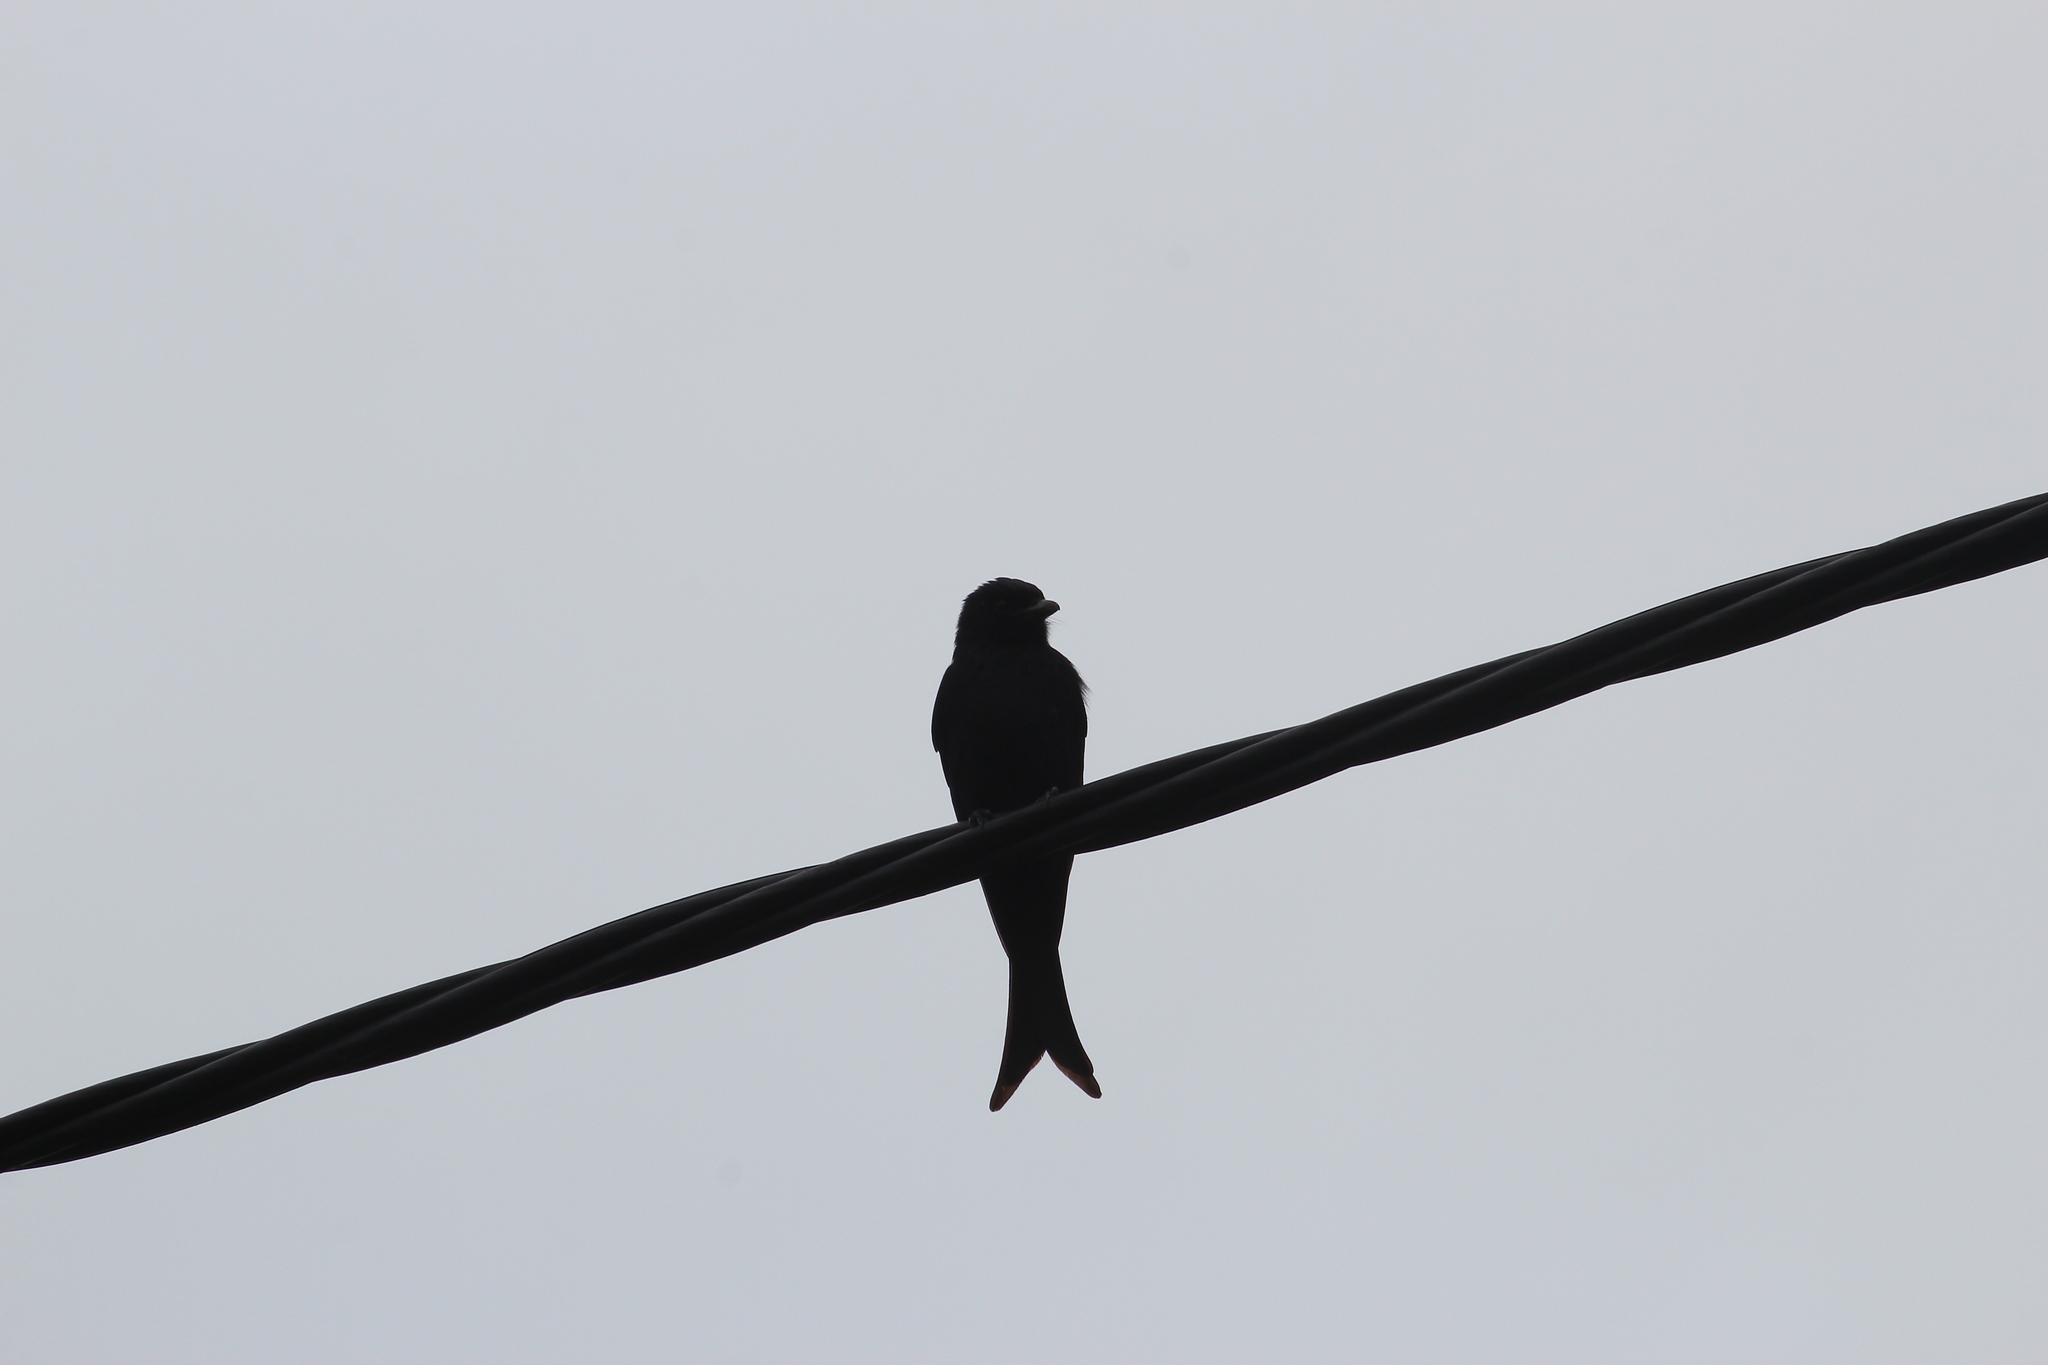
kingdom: Animalia
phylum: Chordata
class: Aves
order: Passeriformes
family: Dicruridae
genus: Dicrurus
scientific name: Dicrurus adsimilis
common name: Fork-tailed drongo
